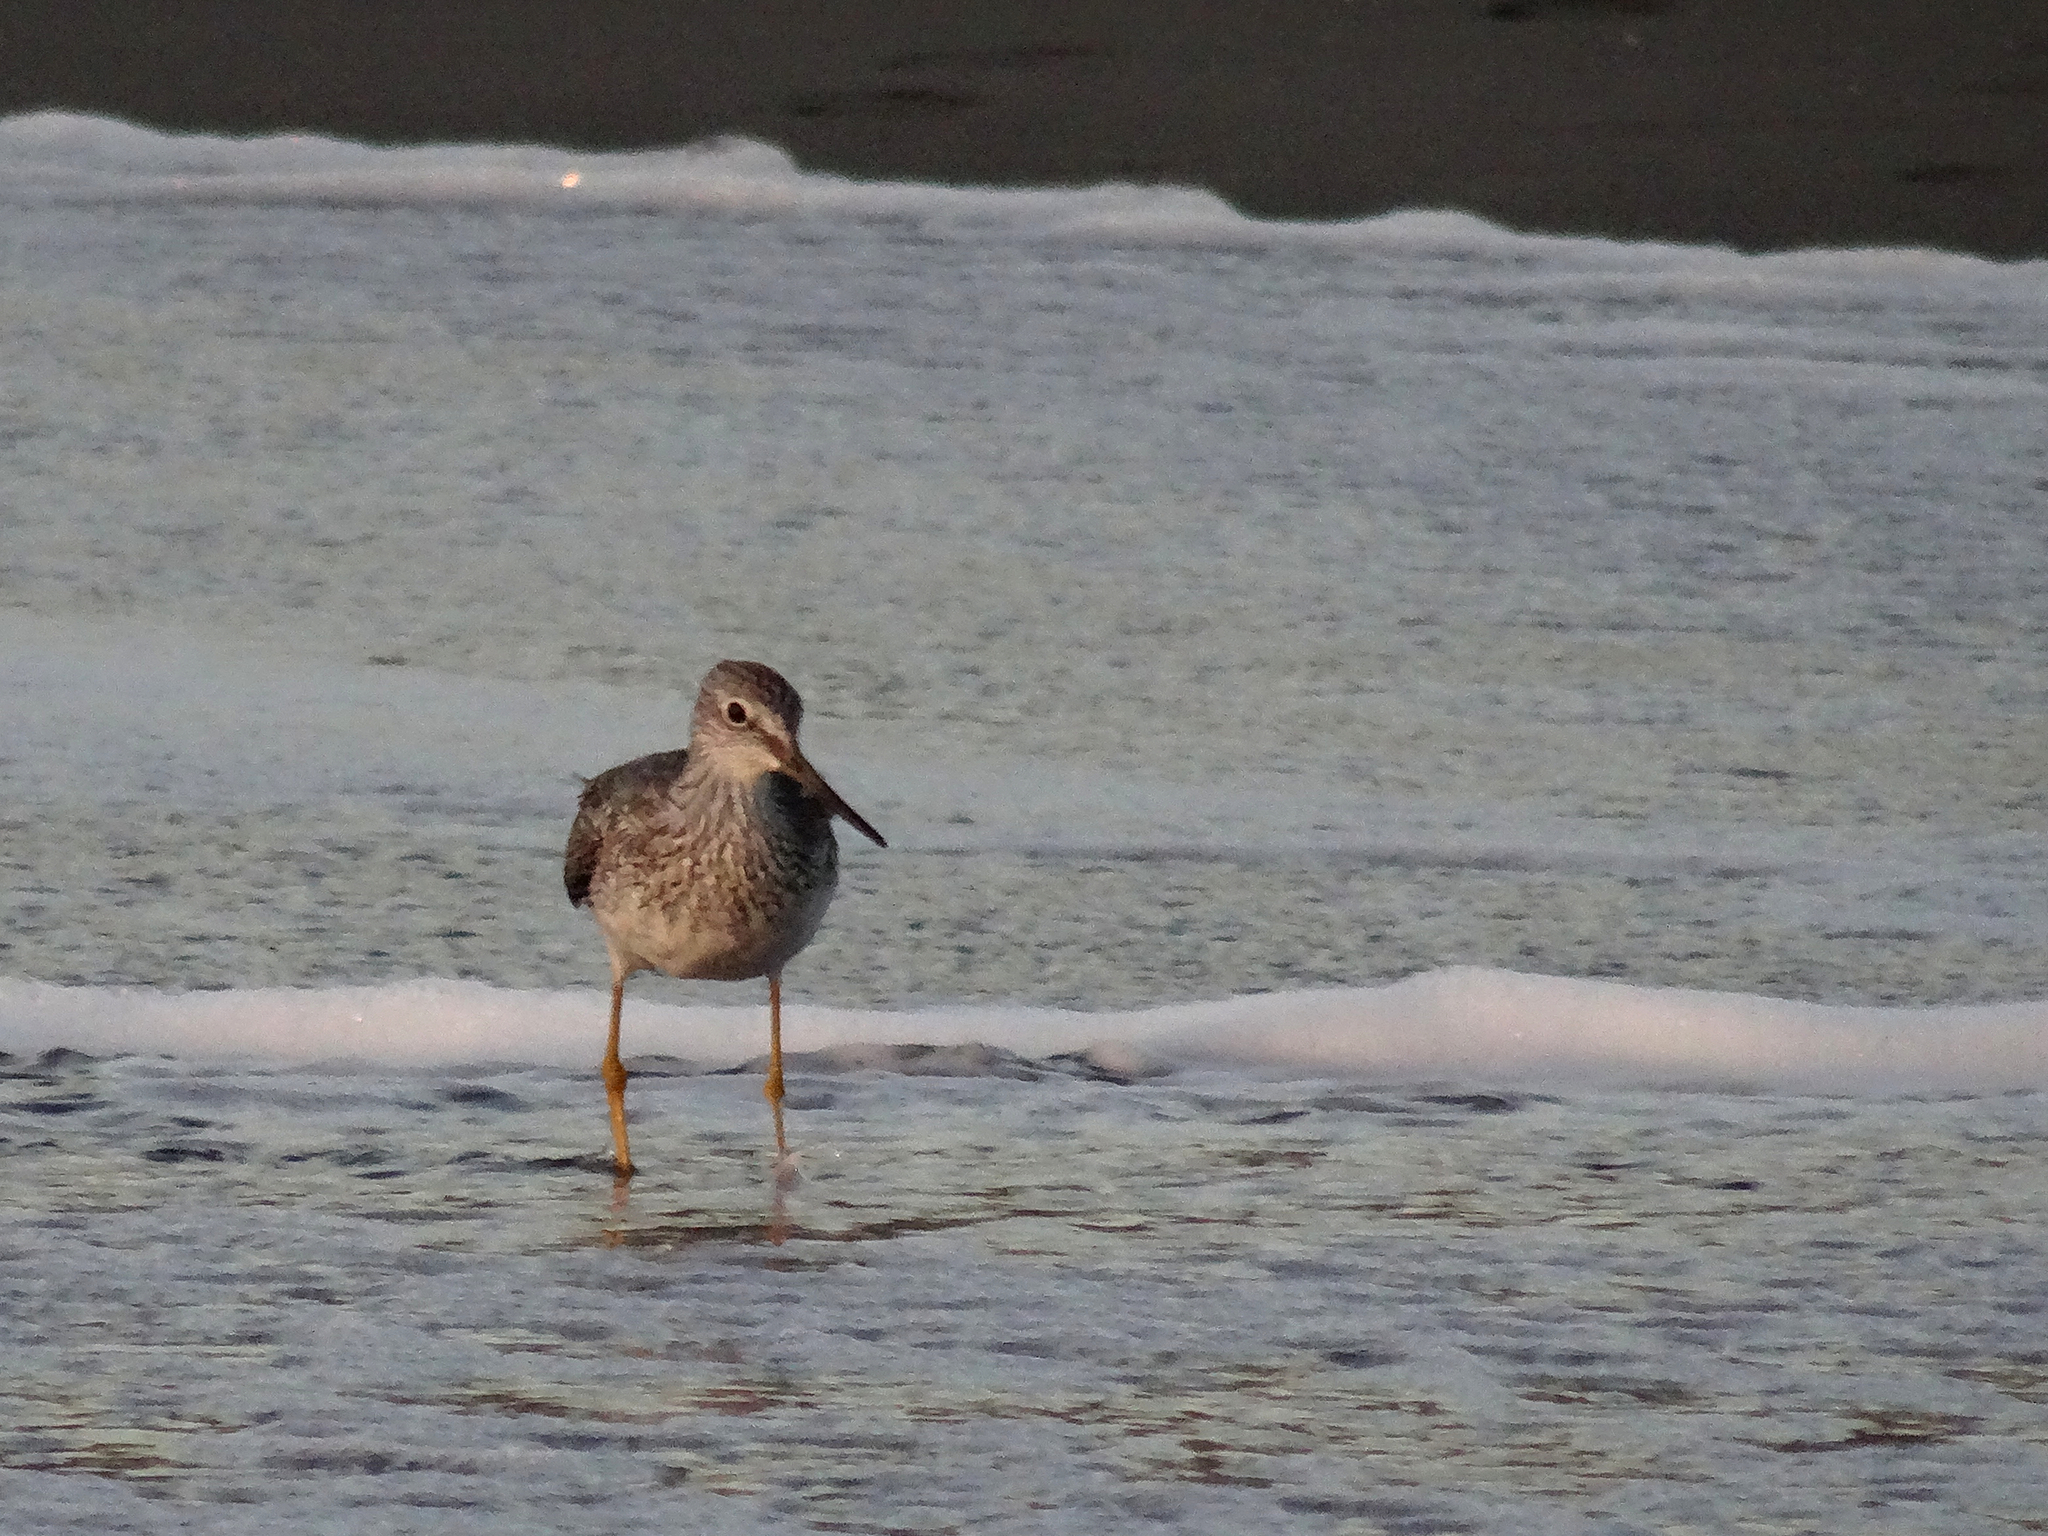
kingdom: Animalia
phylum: Chordata
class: Aves
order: Charadriiformes
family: Scolopacidae
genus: Tringa
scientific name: Tringa melanoleuca
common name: Greater yellowlegs
